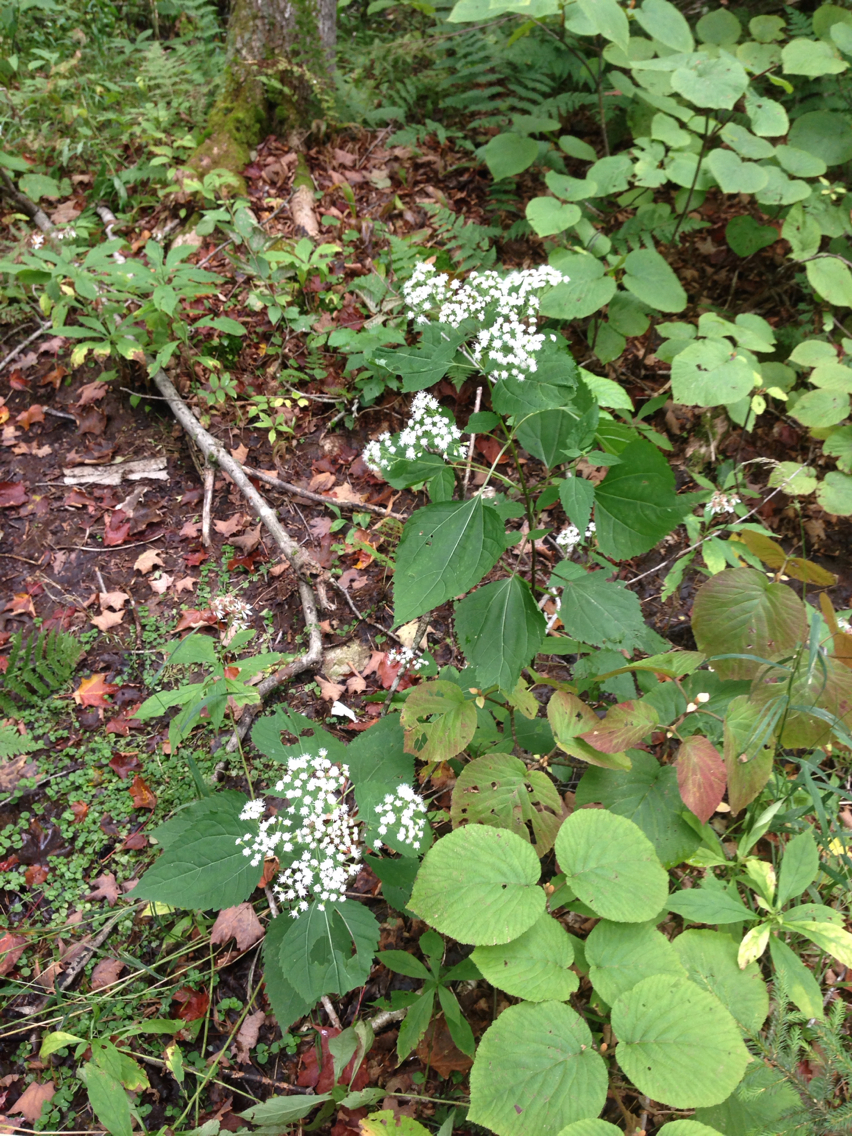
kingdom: Plantae
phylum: Tracheophyta
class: Magnoliopsida
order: Dipsacales
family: Viburnaceae
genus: Viburnum
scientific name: Viburnum lantanoides
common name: Hobblebush
